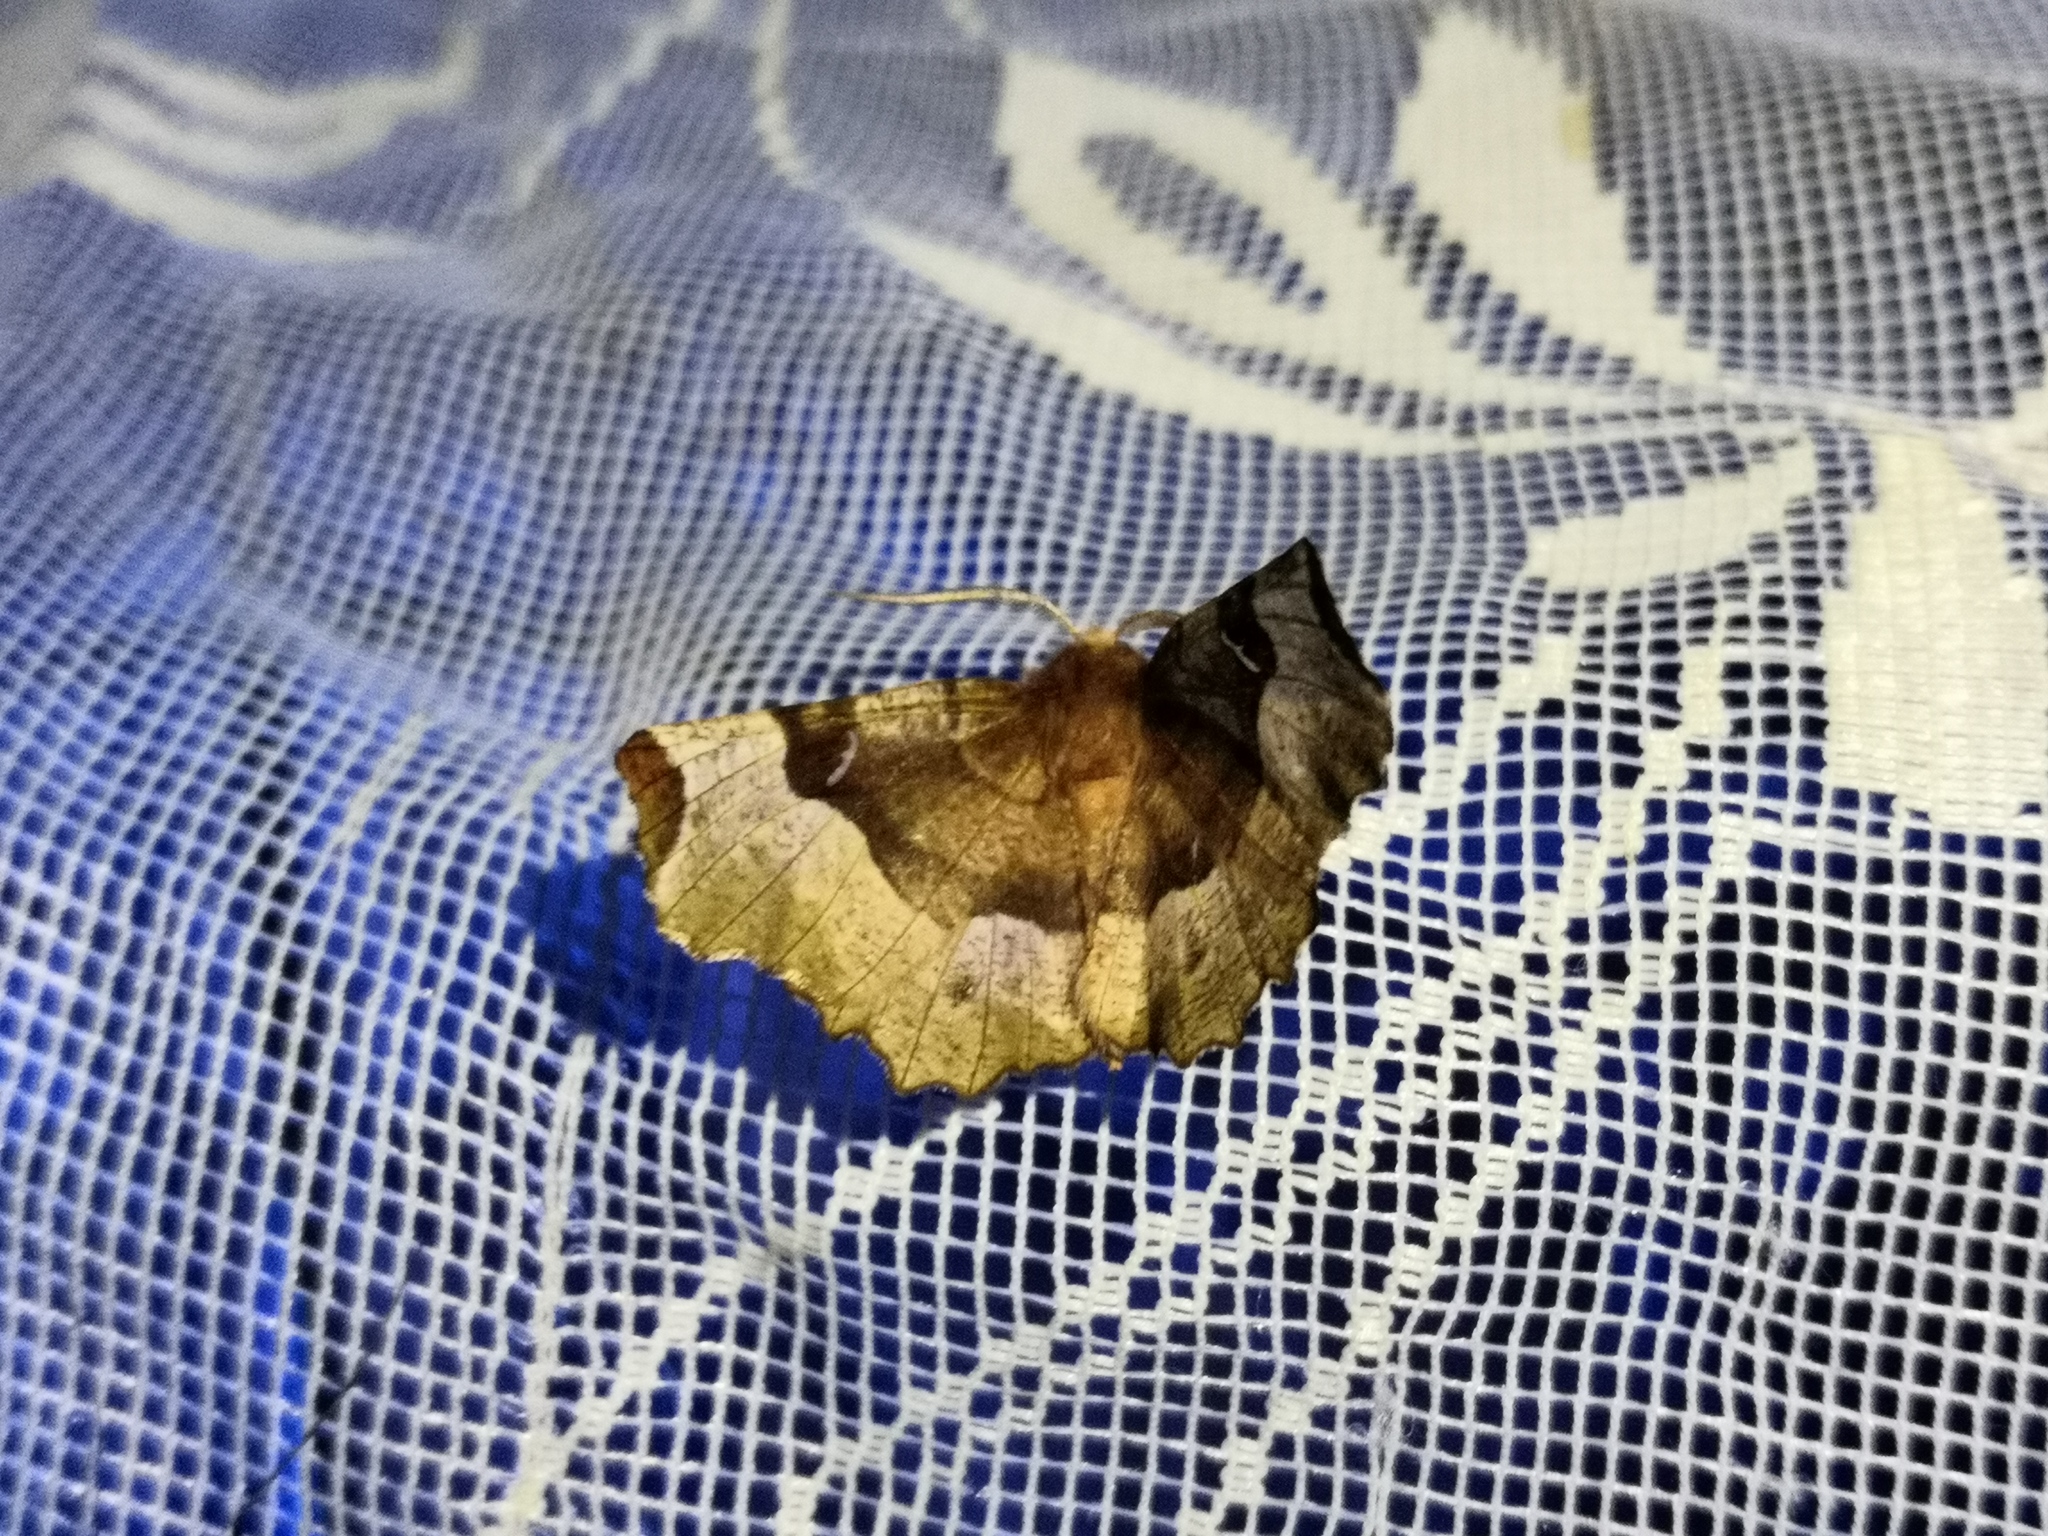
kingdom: Animalia
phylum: Arthropoda
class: Insecta
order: Lepidoptera
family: Geometridae
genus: Selenia
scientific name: Selenia tetralunaria
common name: Purple thorn
